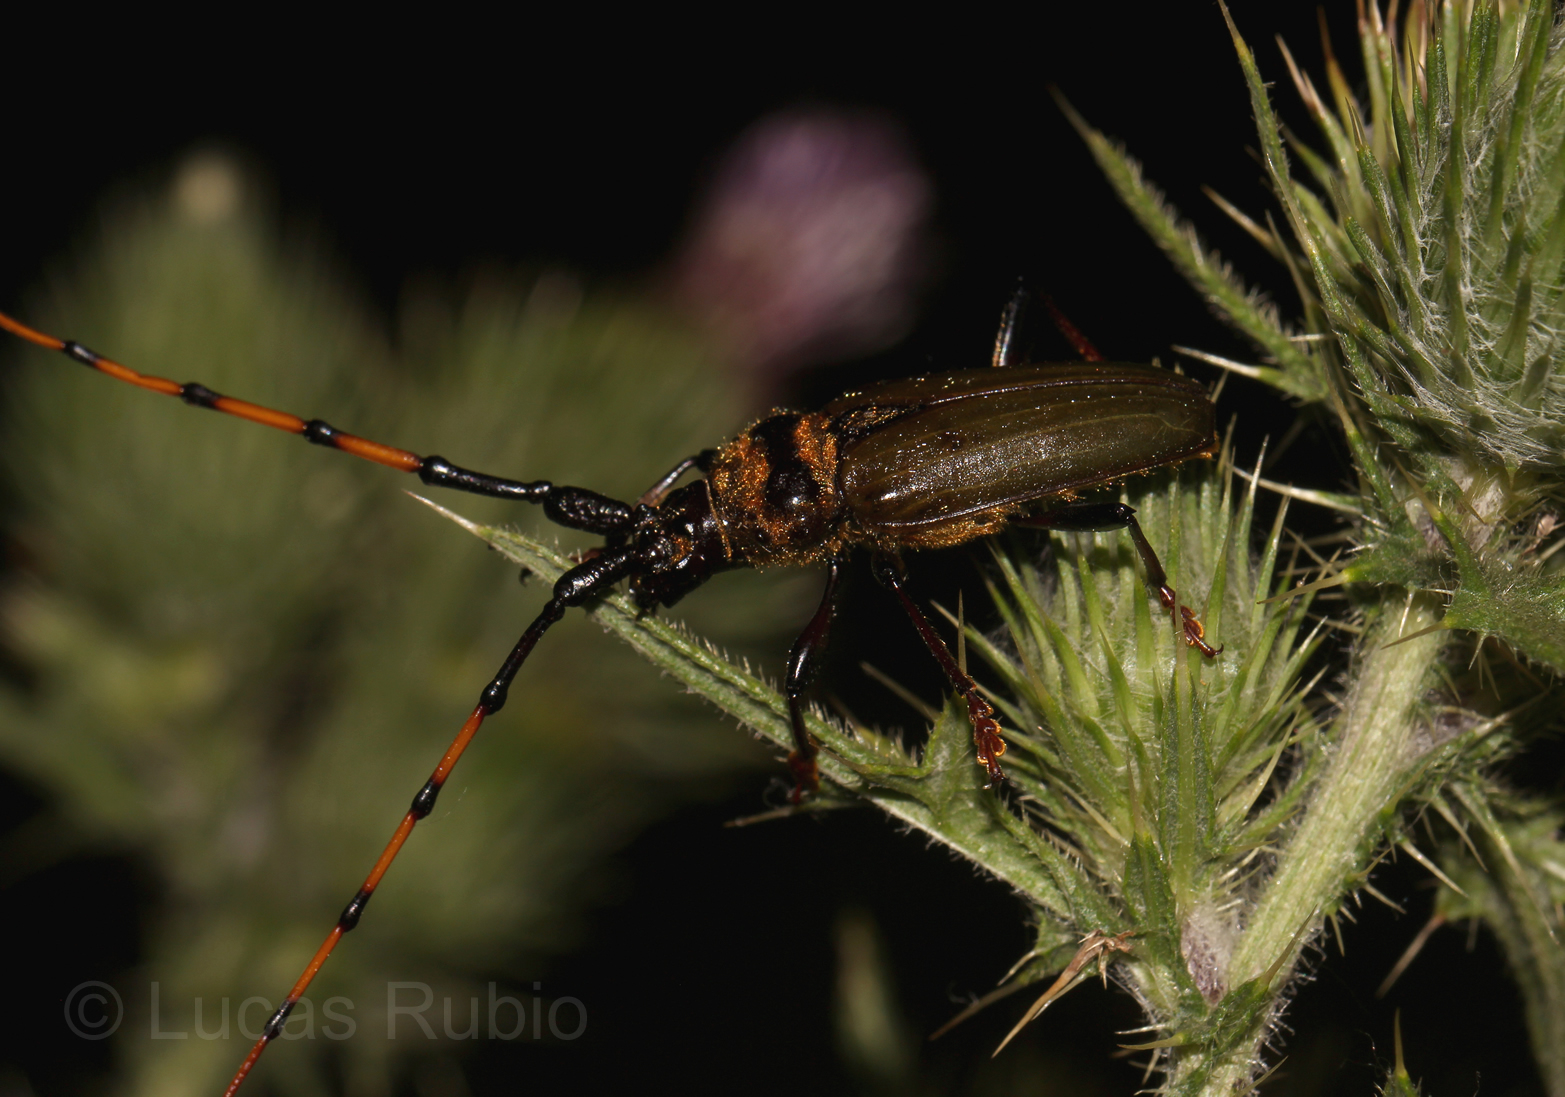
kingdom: Animalia
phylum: Arthropoda
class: Insecta
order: Coleoptera
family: Cerambycidae
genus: Retrachydes
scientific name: Retrachydes thoracicus
